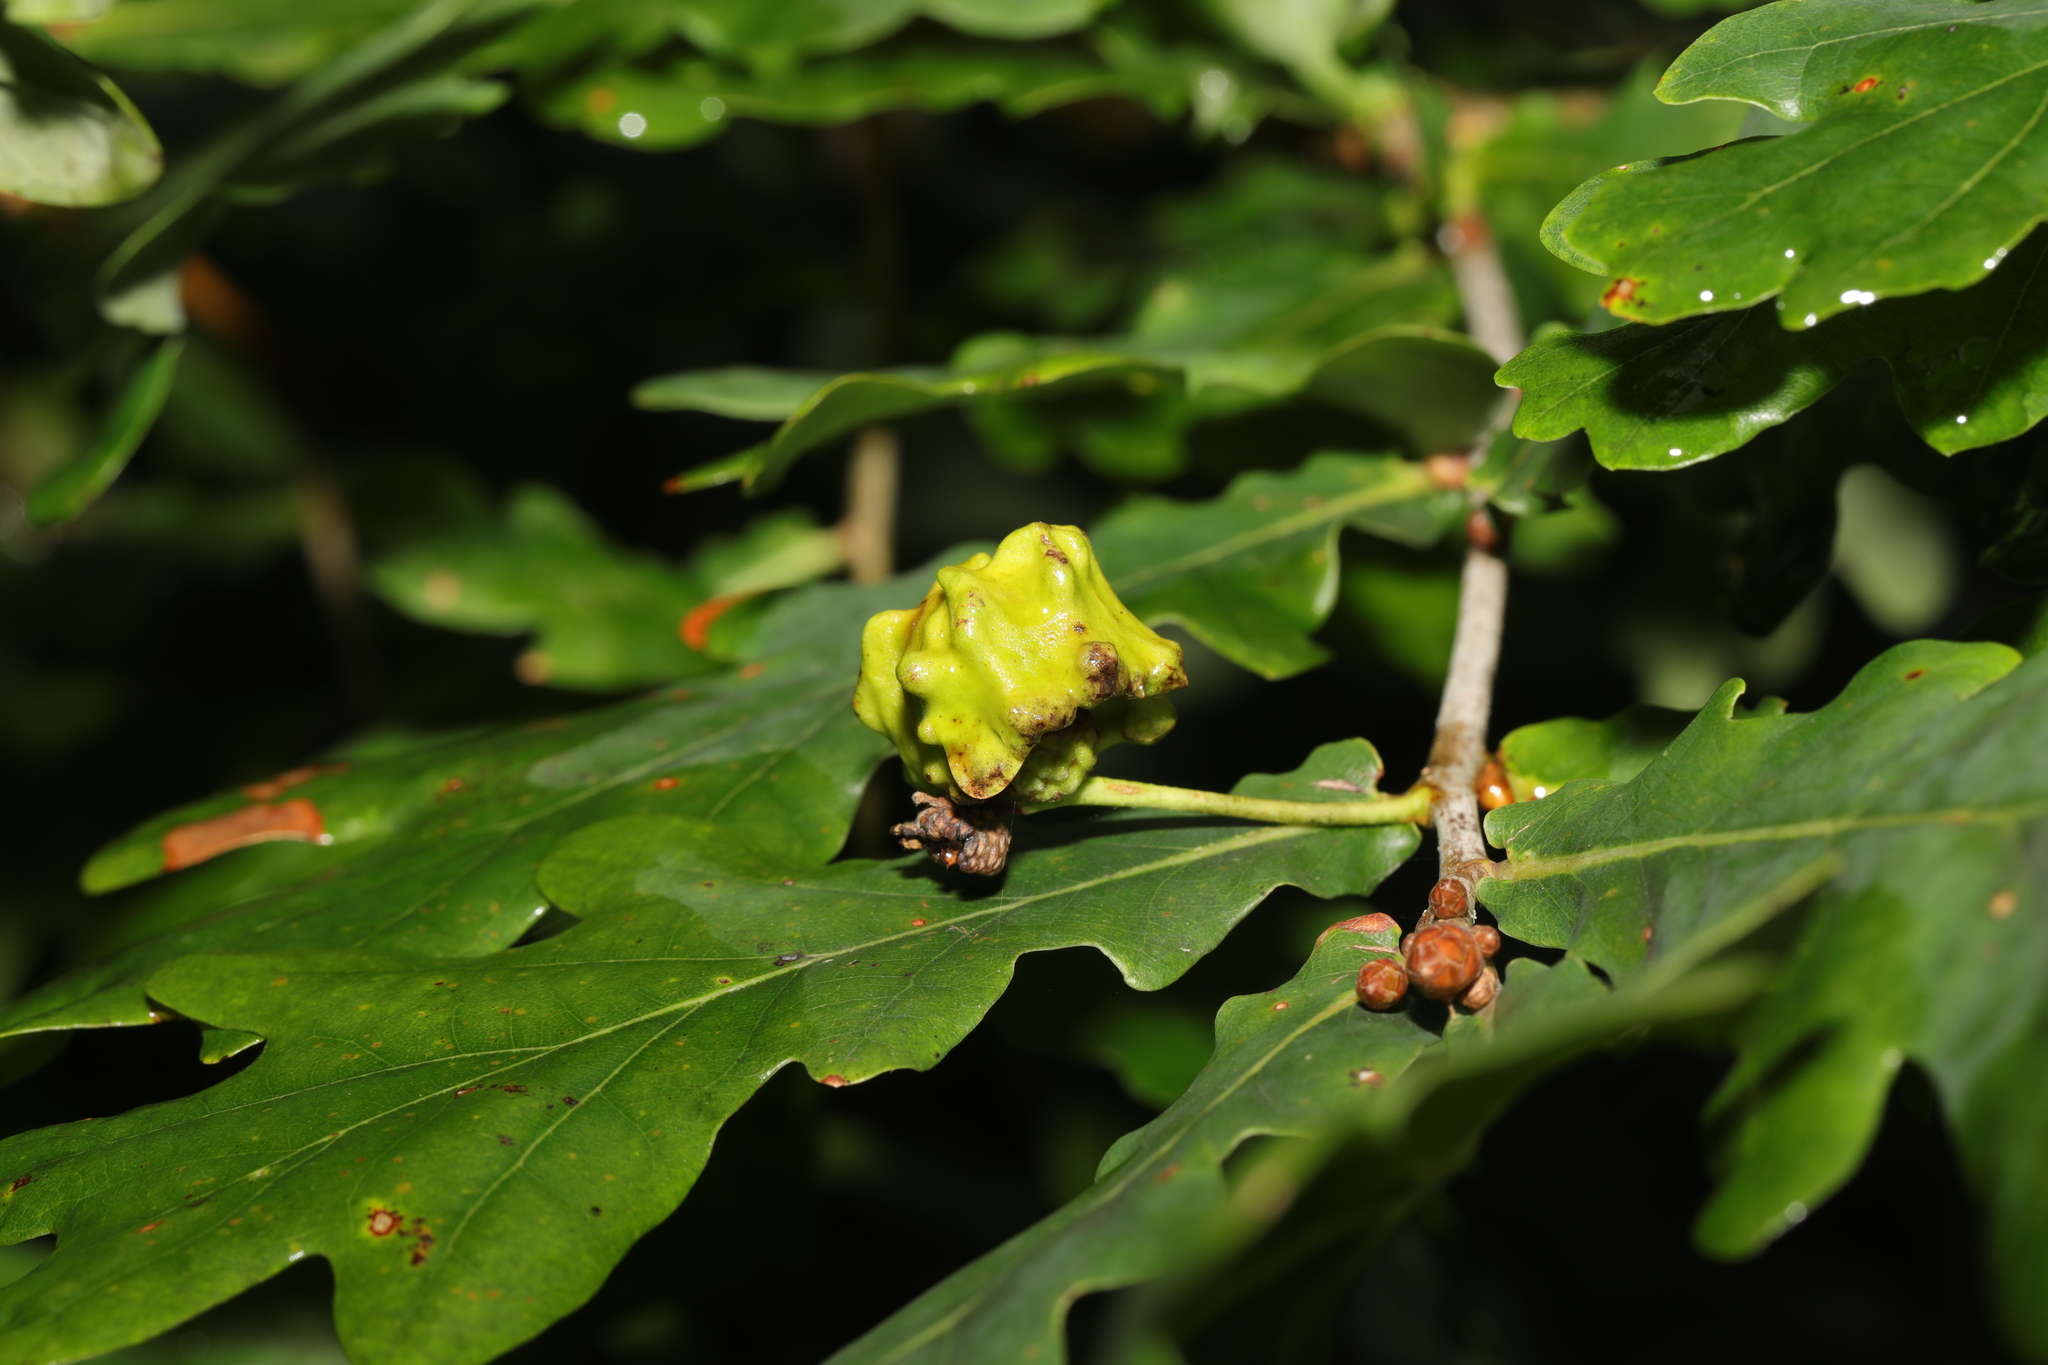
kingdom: Animalia
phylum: Arthropoda
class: Insecta
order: Hymenoptera
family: Cynipidae
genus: Andricus
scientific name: Andricus quercuscalicis
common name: Knopper gall
